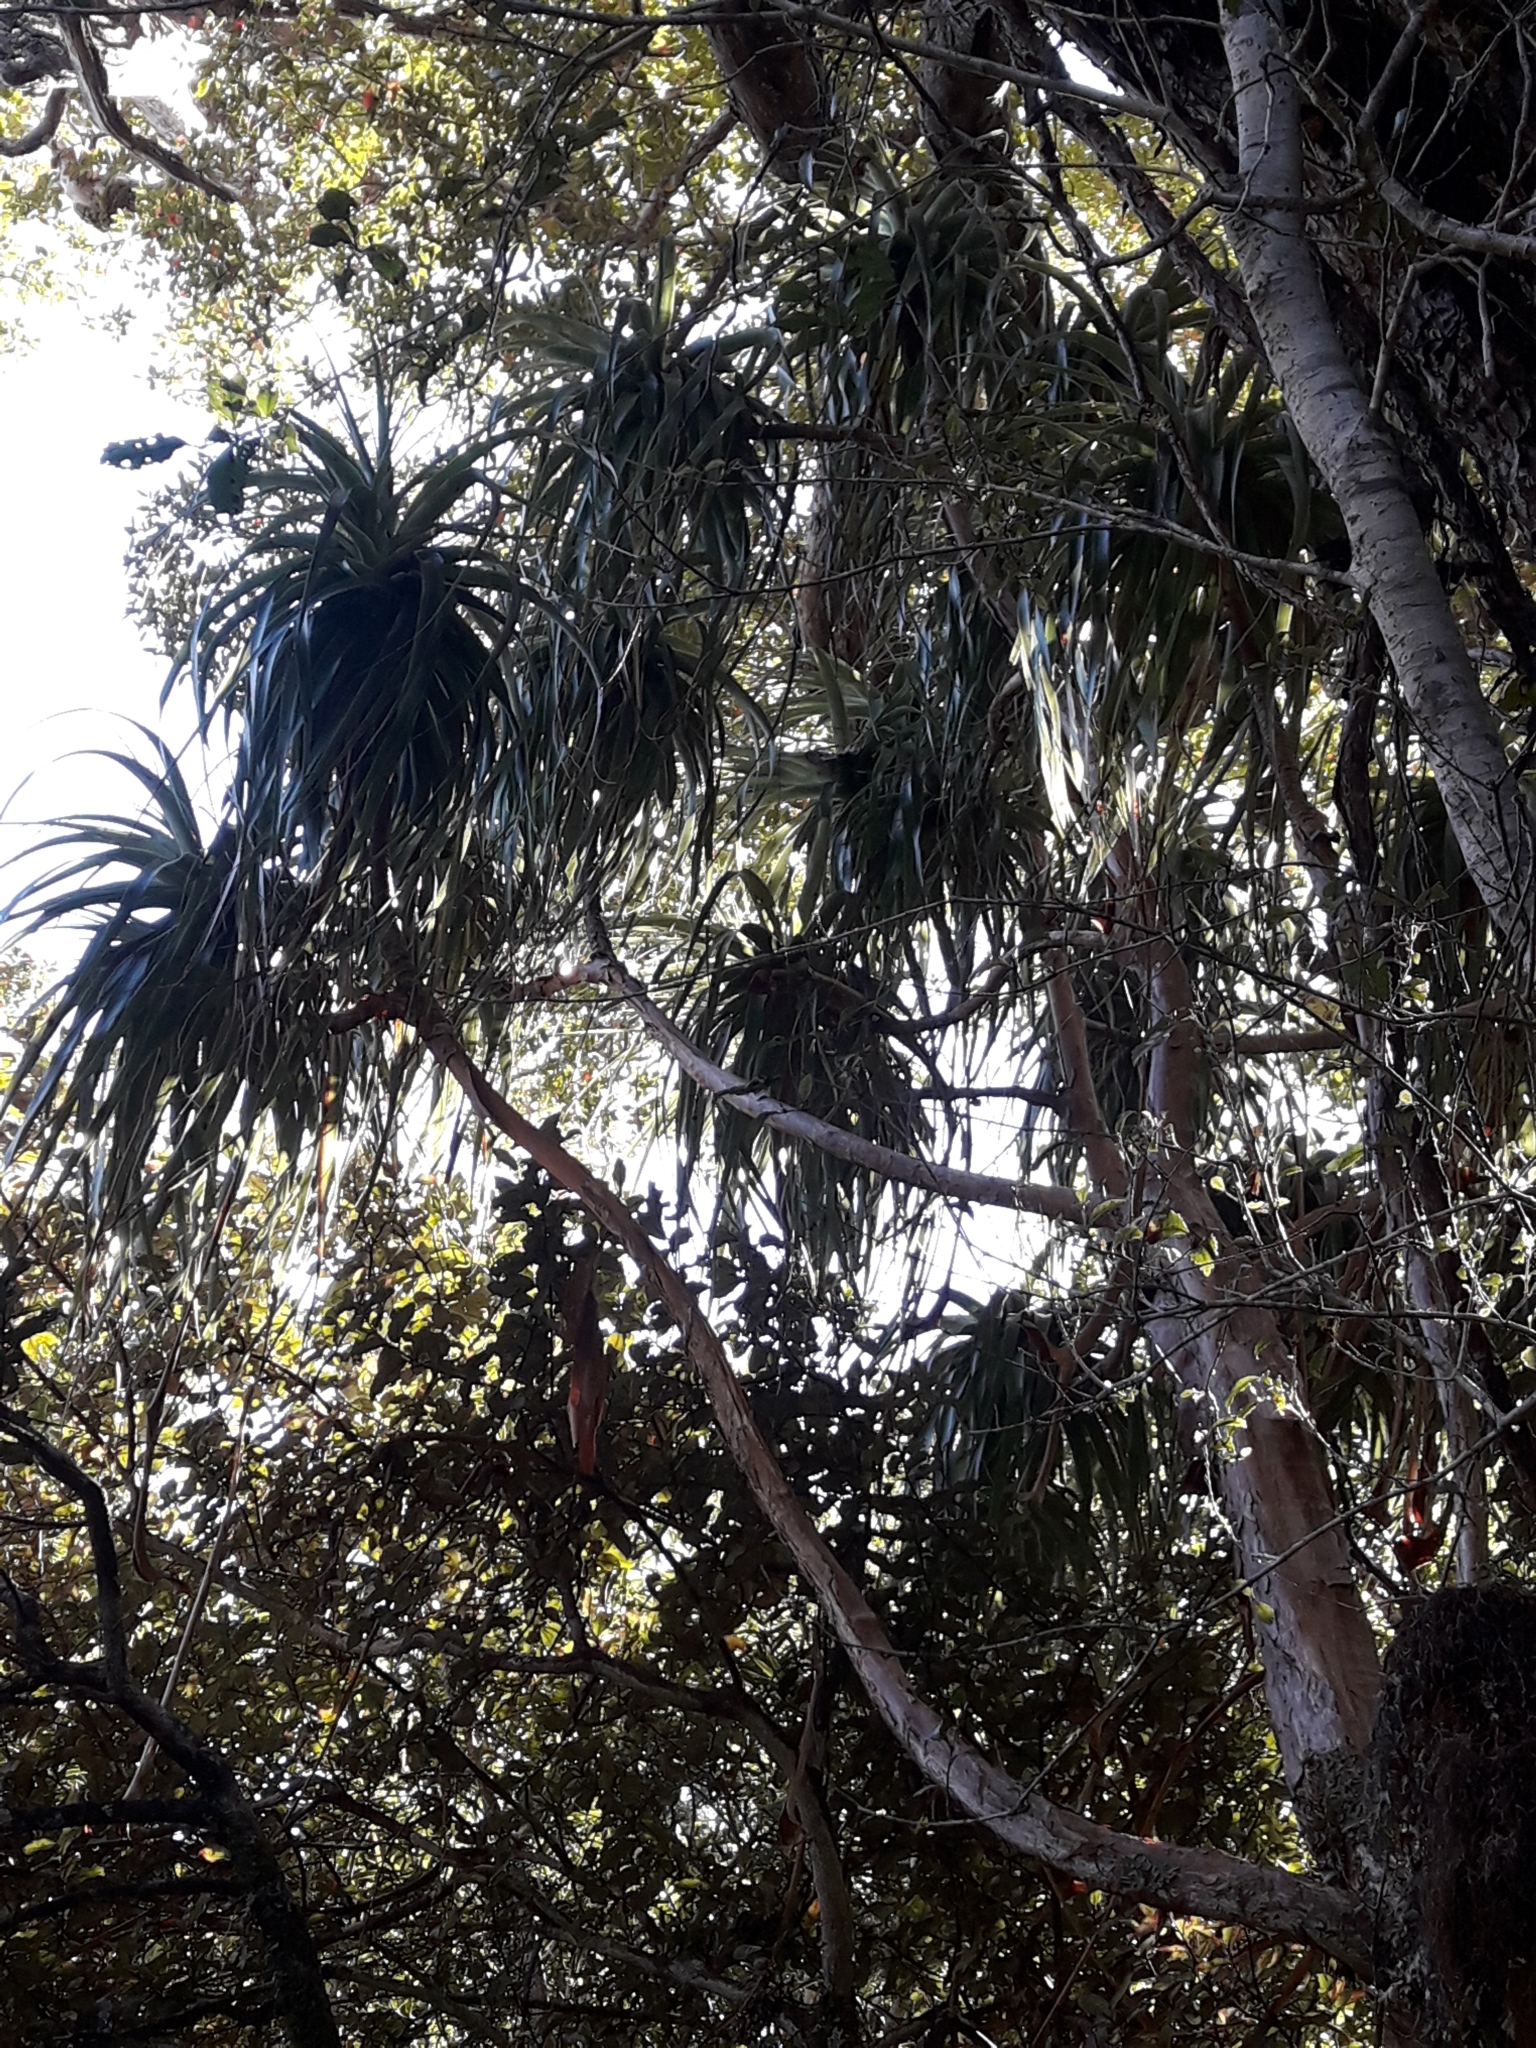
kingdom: Plantae
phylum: Tracheophyta
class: Magnoliopsida
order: Ericales
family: Ericaceae
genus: Dracophyllum
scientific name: Dracophyllum traversii
